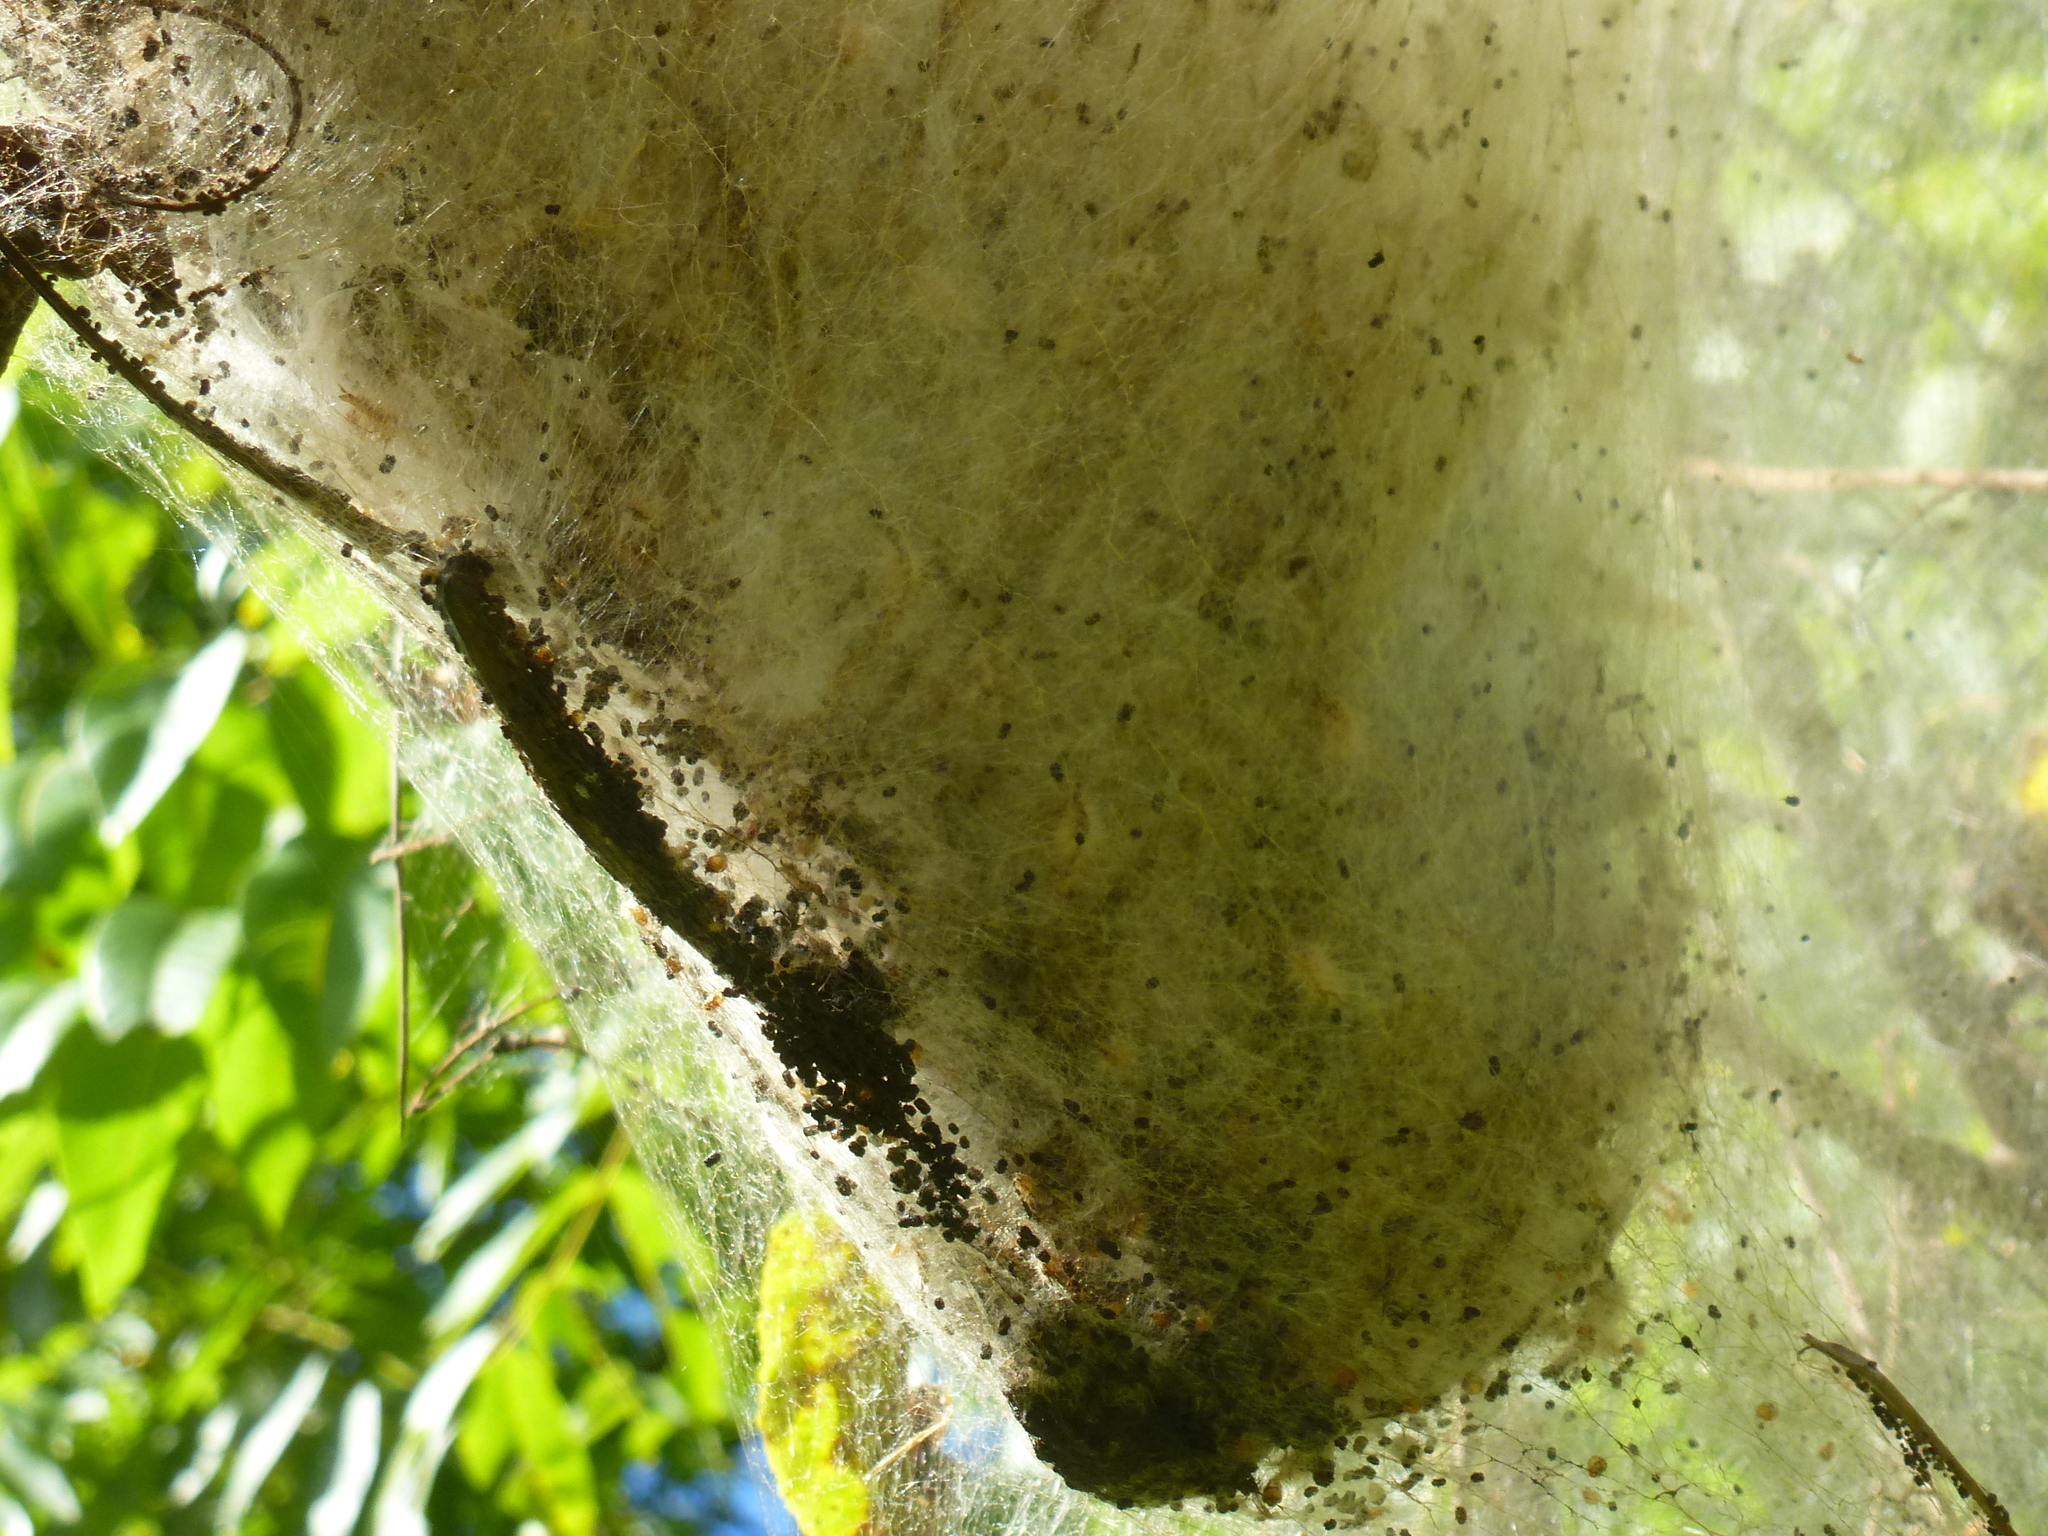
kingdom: Animalia
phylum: Arthropoda
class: Insecta
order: Lepidoptera
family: Erebidae
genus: Hyphantria
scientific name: Hyphantria cunea
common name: American white moth
